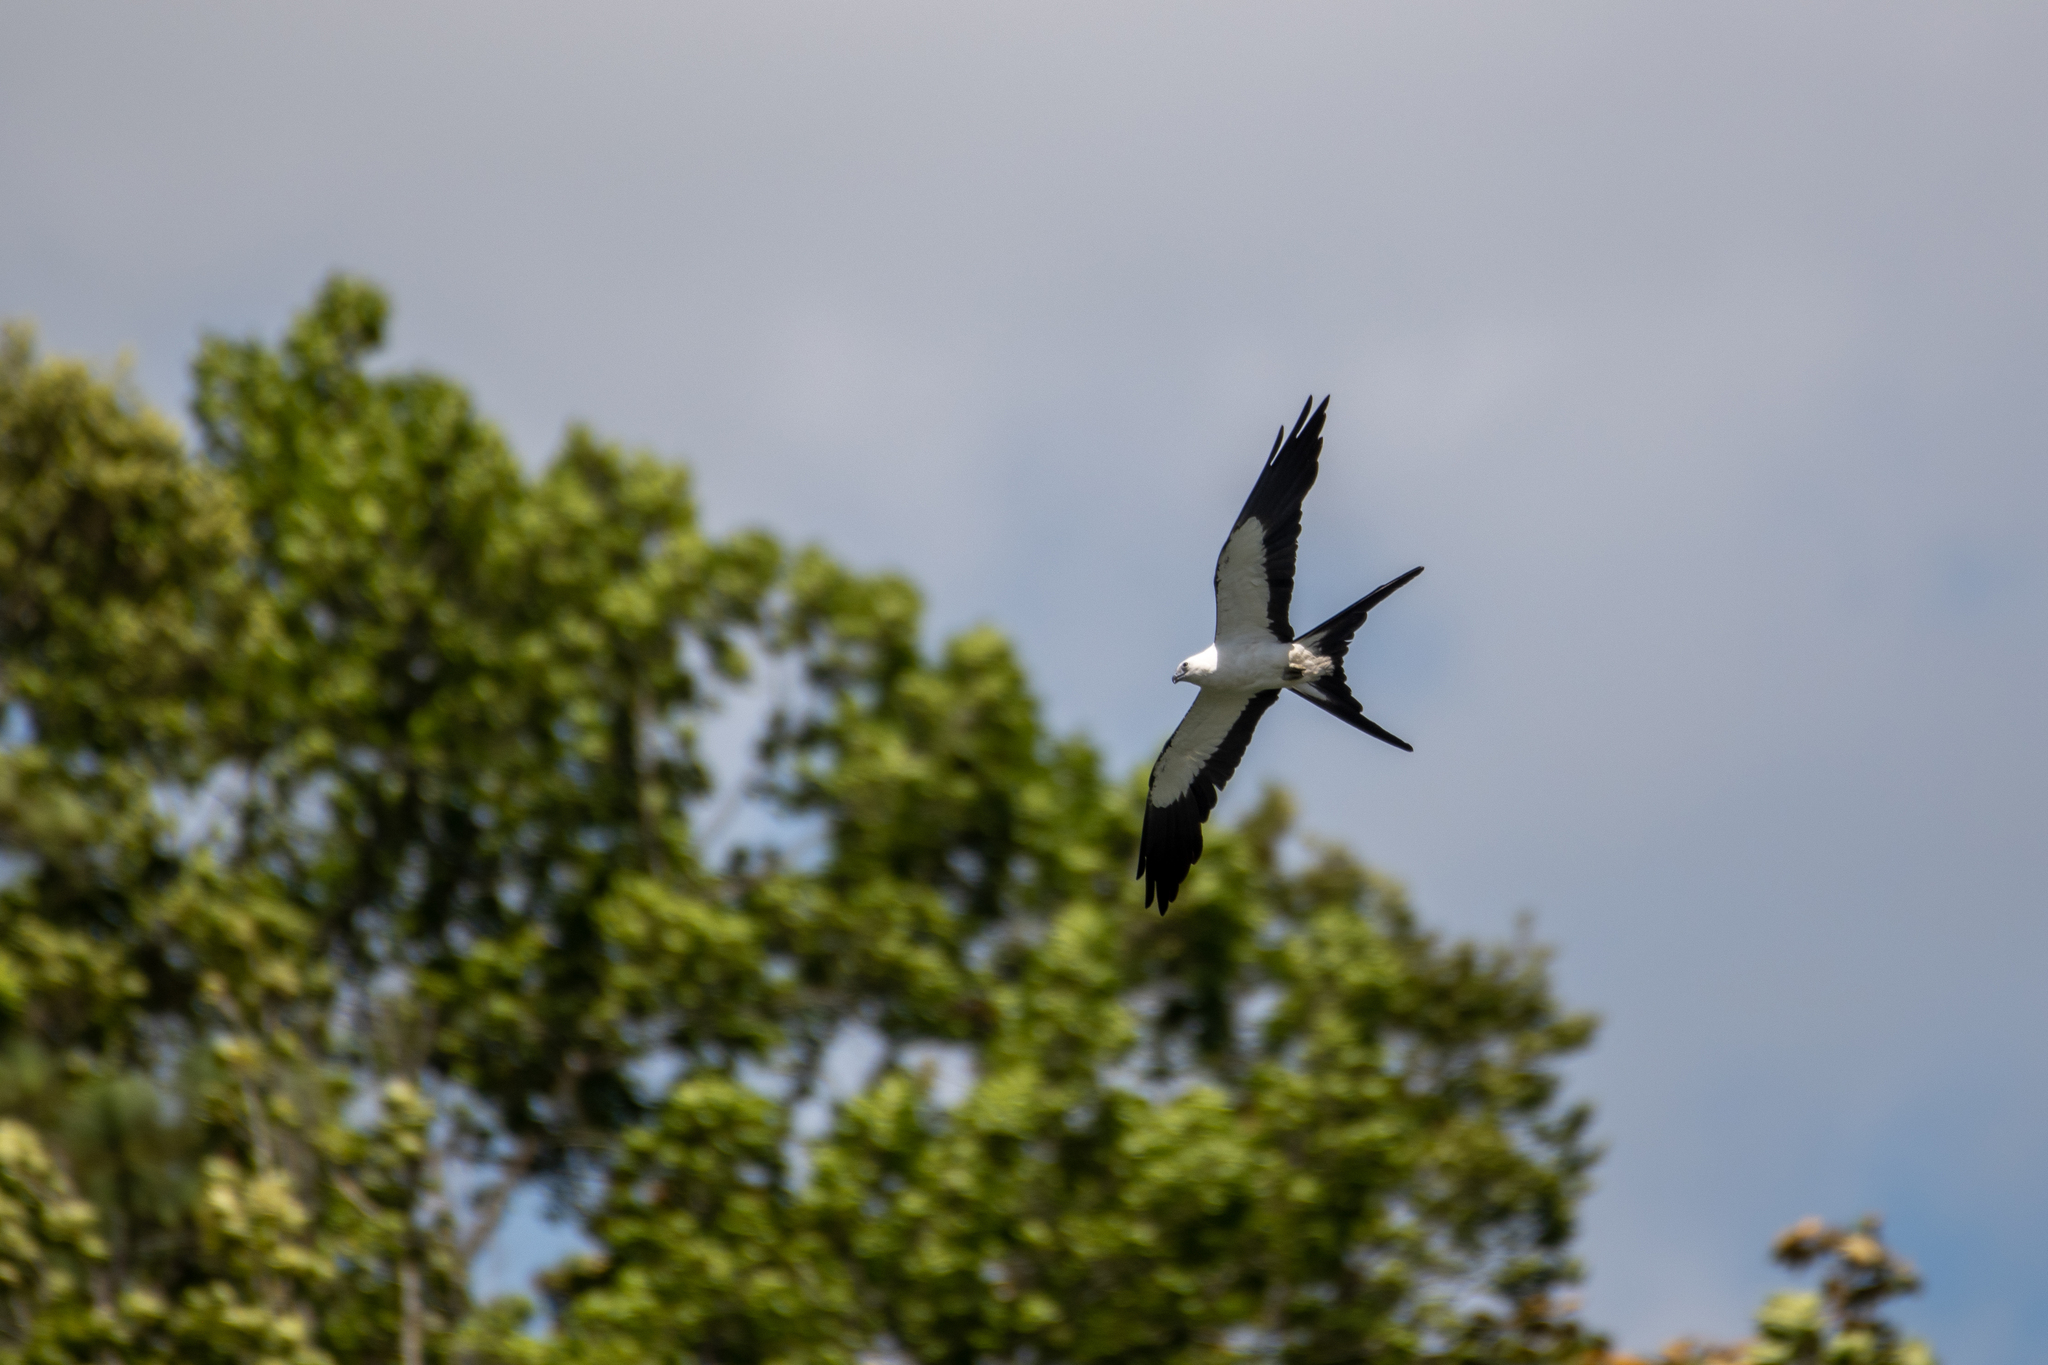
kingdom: Animalia
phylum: Chordata
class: Aves
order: Accipitriformes
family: Accipitridae
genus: Elanoides
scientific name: Elanoides forficatus
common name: Swallow-tailed kite
